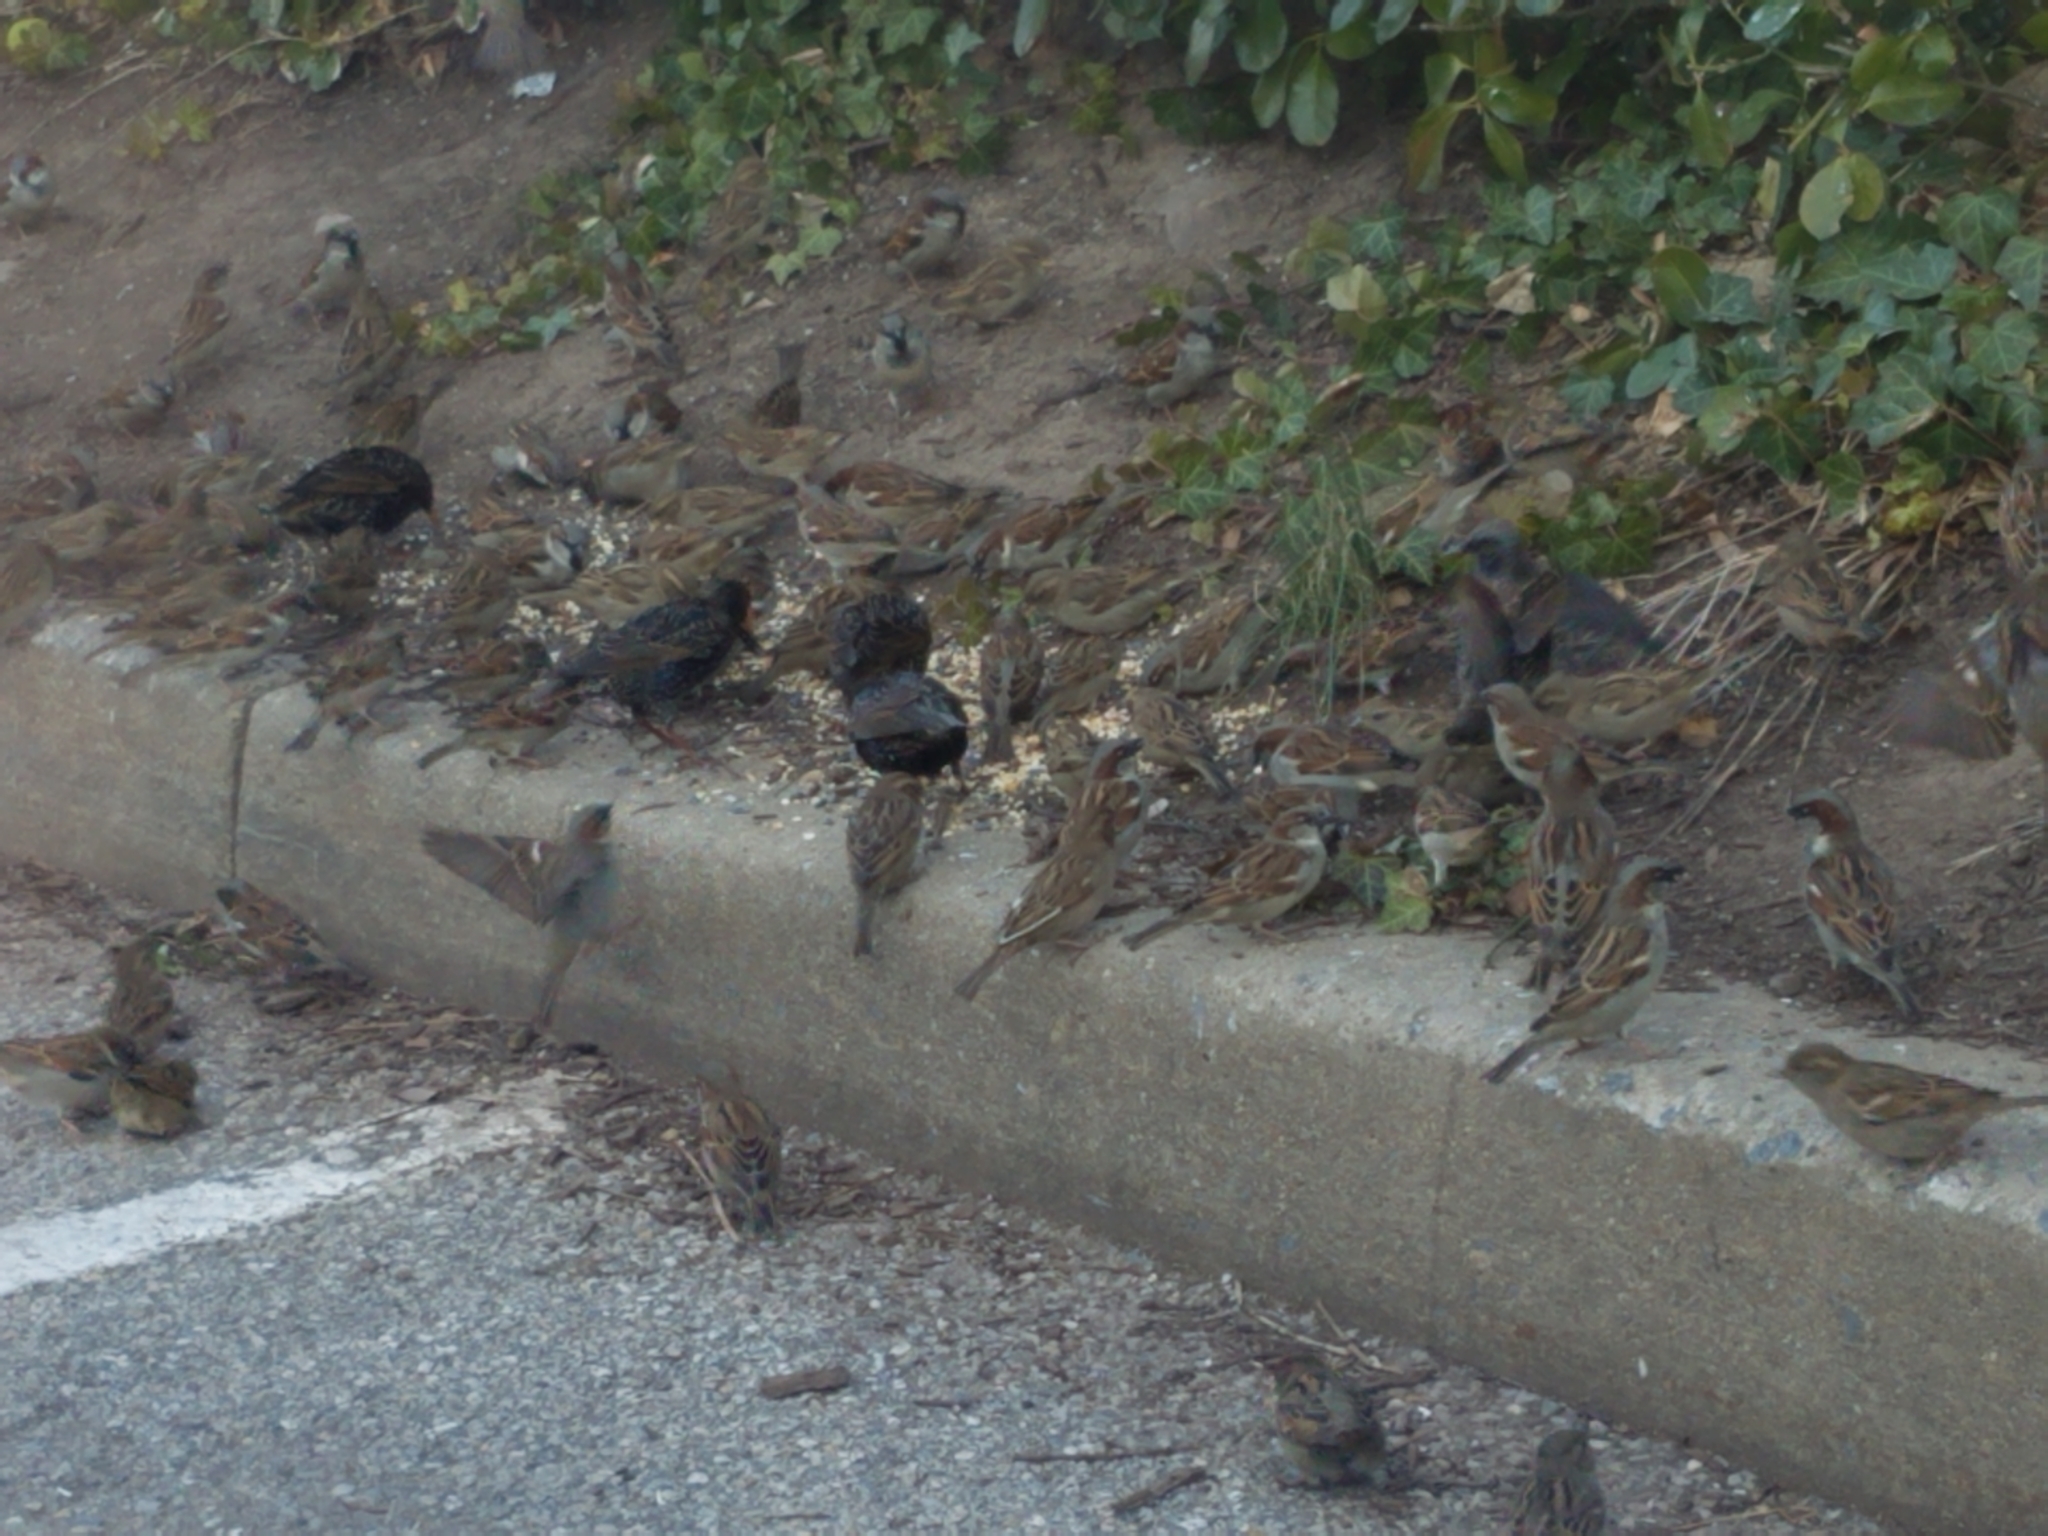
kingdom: Animalia
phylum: Chordata
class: Aves
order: Passeriformes
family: Passeridae
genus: Passer
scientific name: Passer domesticus
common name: House sparrow
